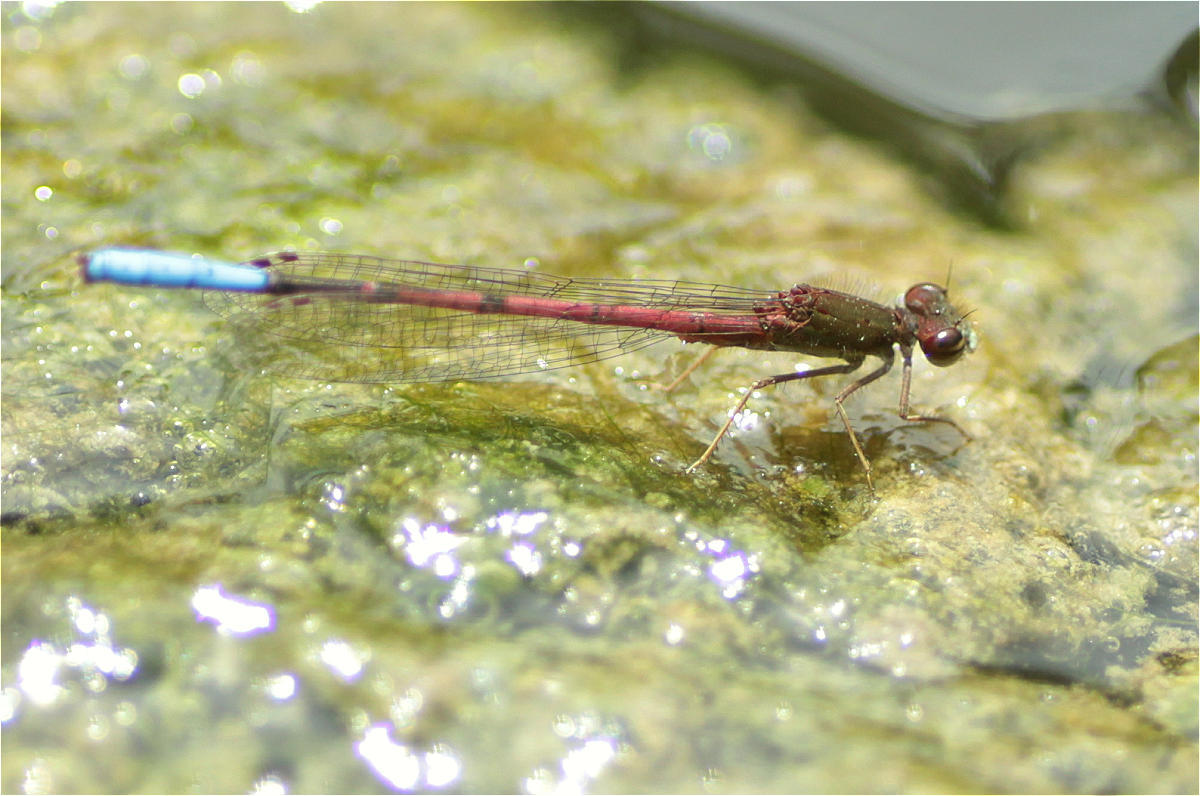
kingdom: Animalia
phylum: Arthropoda
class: Insecta
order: Odonata
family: Coenagrionidae
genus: Oxyallagma
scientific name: Oxyallagma dissidens
